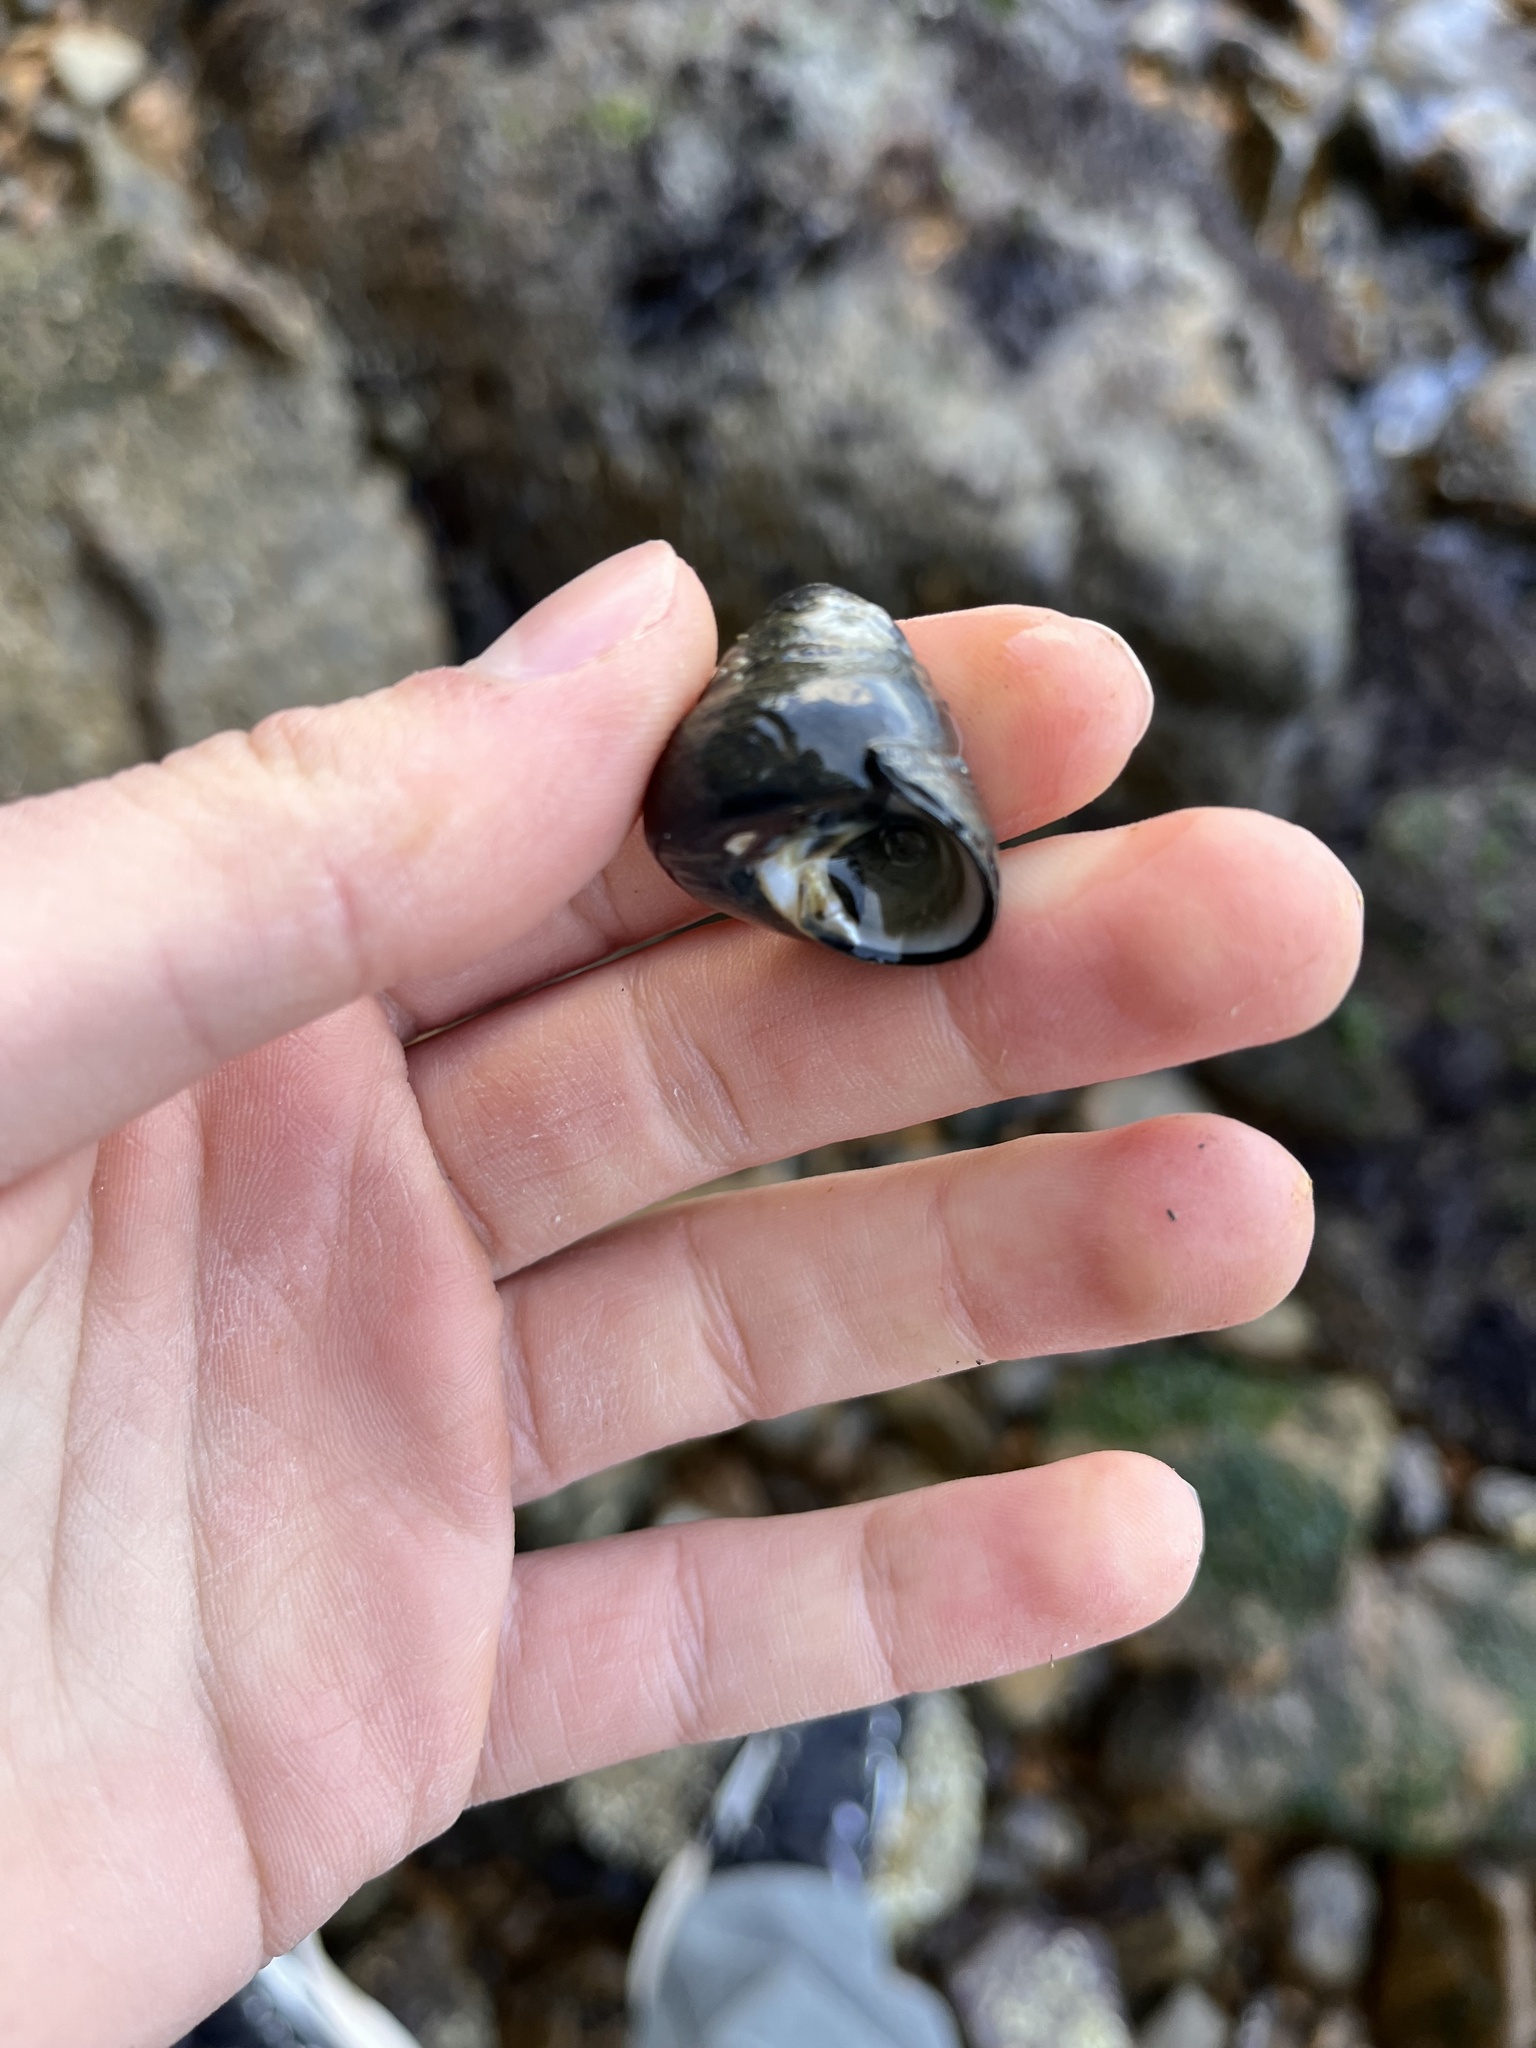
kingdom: Animalia
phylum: Mollusca
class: Gastropoda
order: Trochida
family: Tegulidae
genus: Tegula
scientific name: Tegula funebralis
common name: Black tegula
